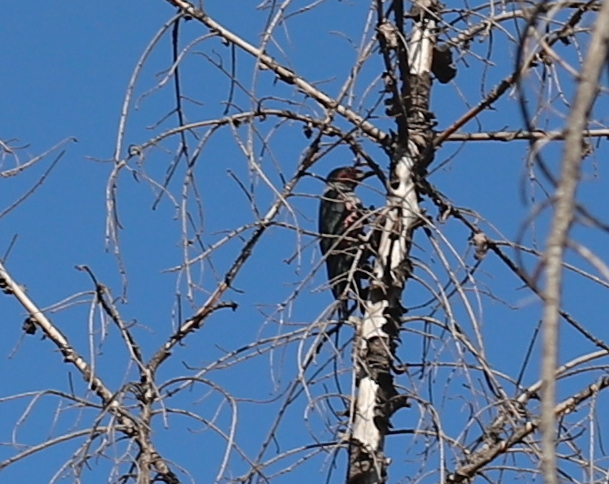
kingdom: Animalia
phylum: Chordata
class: Aves
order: Piciformes
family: Picidae
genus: Melanerpes
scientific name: Melanerpes lewis
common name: Lewis's woodpecker
